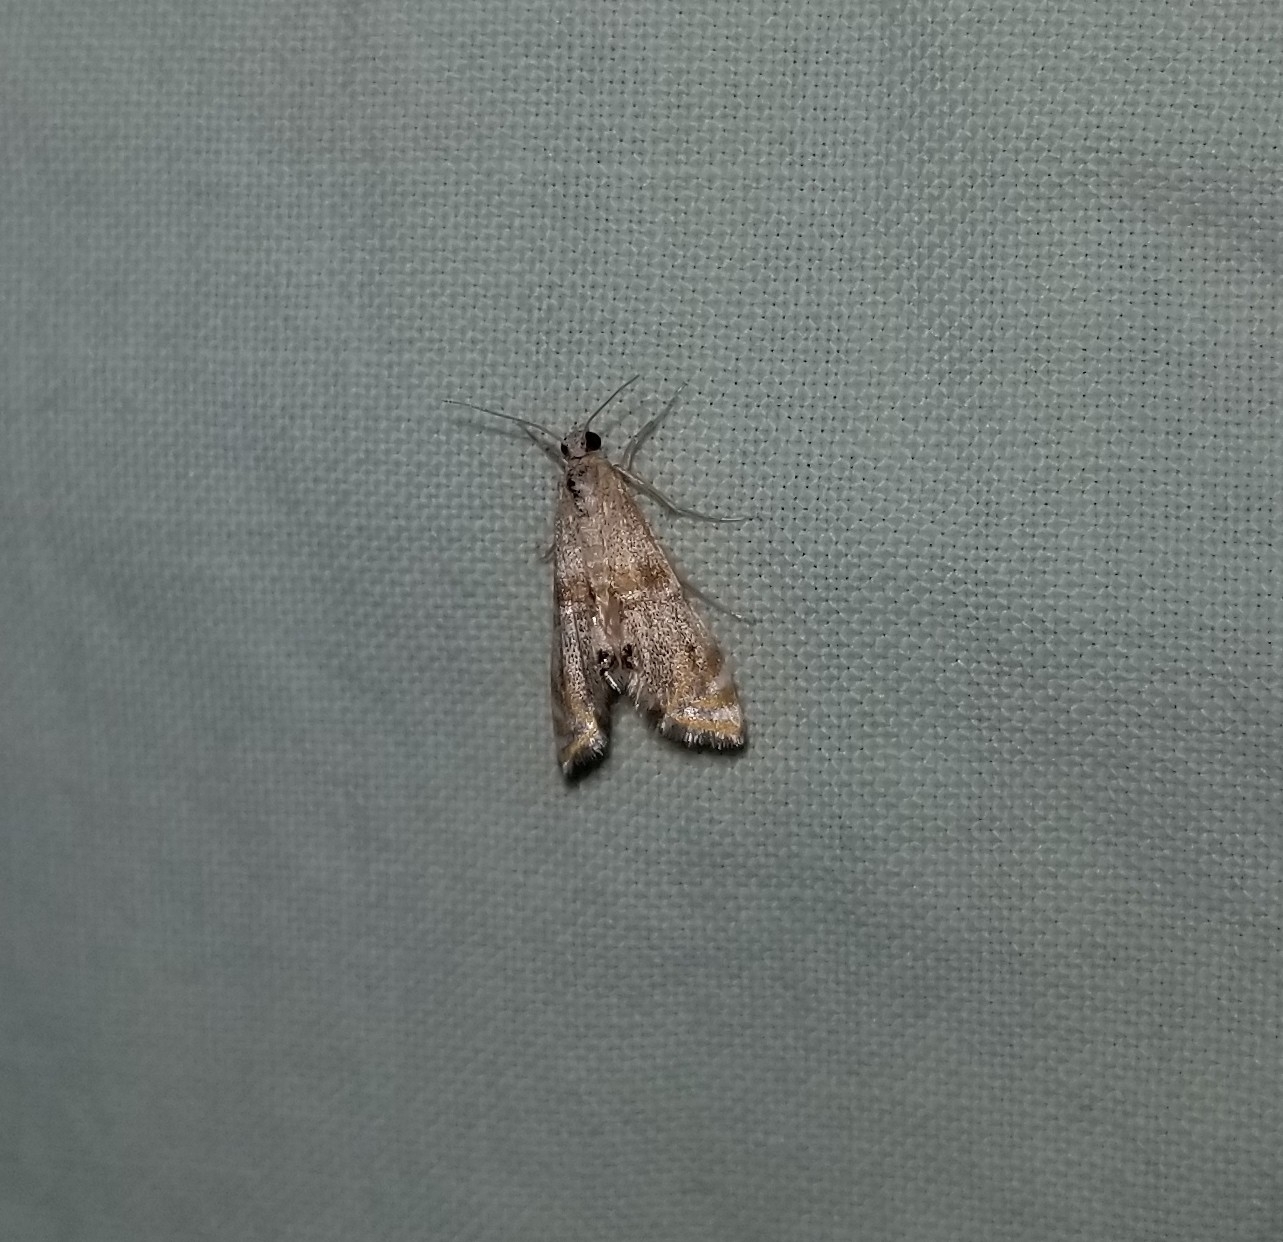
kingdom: Animalia
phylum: Arthropoda
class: Insecta
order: Lepidoptera
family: Crambidae
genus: Petrophila
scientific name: Petrophila bifascialis
